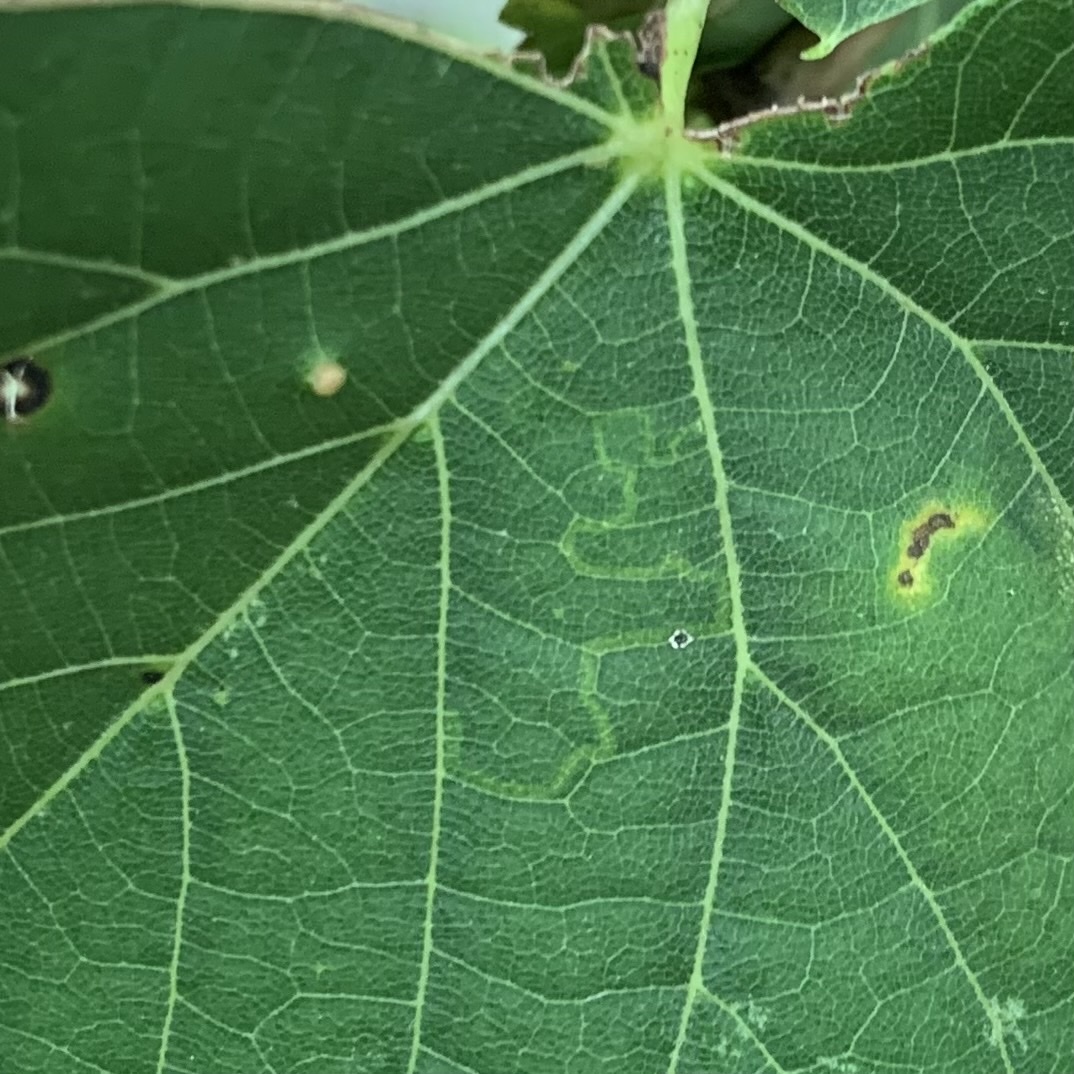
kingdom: Animalia
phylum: Arthropoda
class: Insecta
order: Lepidoptera
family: Nepticulidae
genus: Stigmella
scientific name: Stigmella argentifasciella
